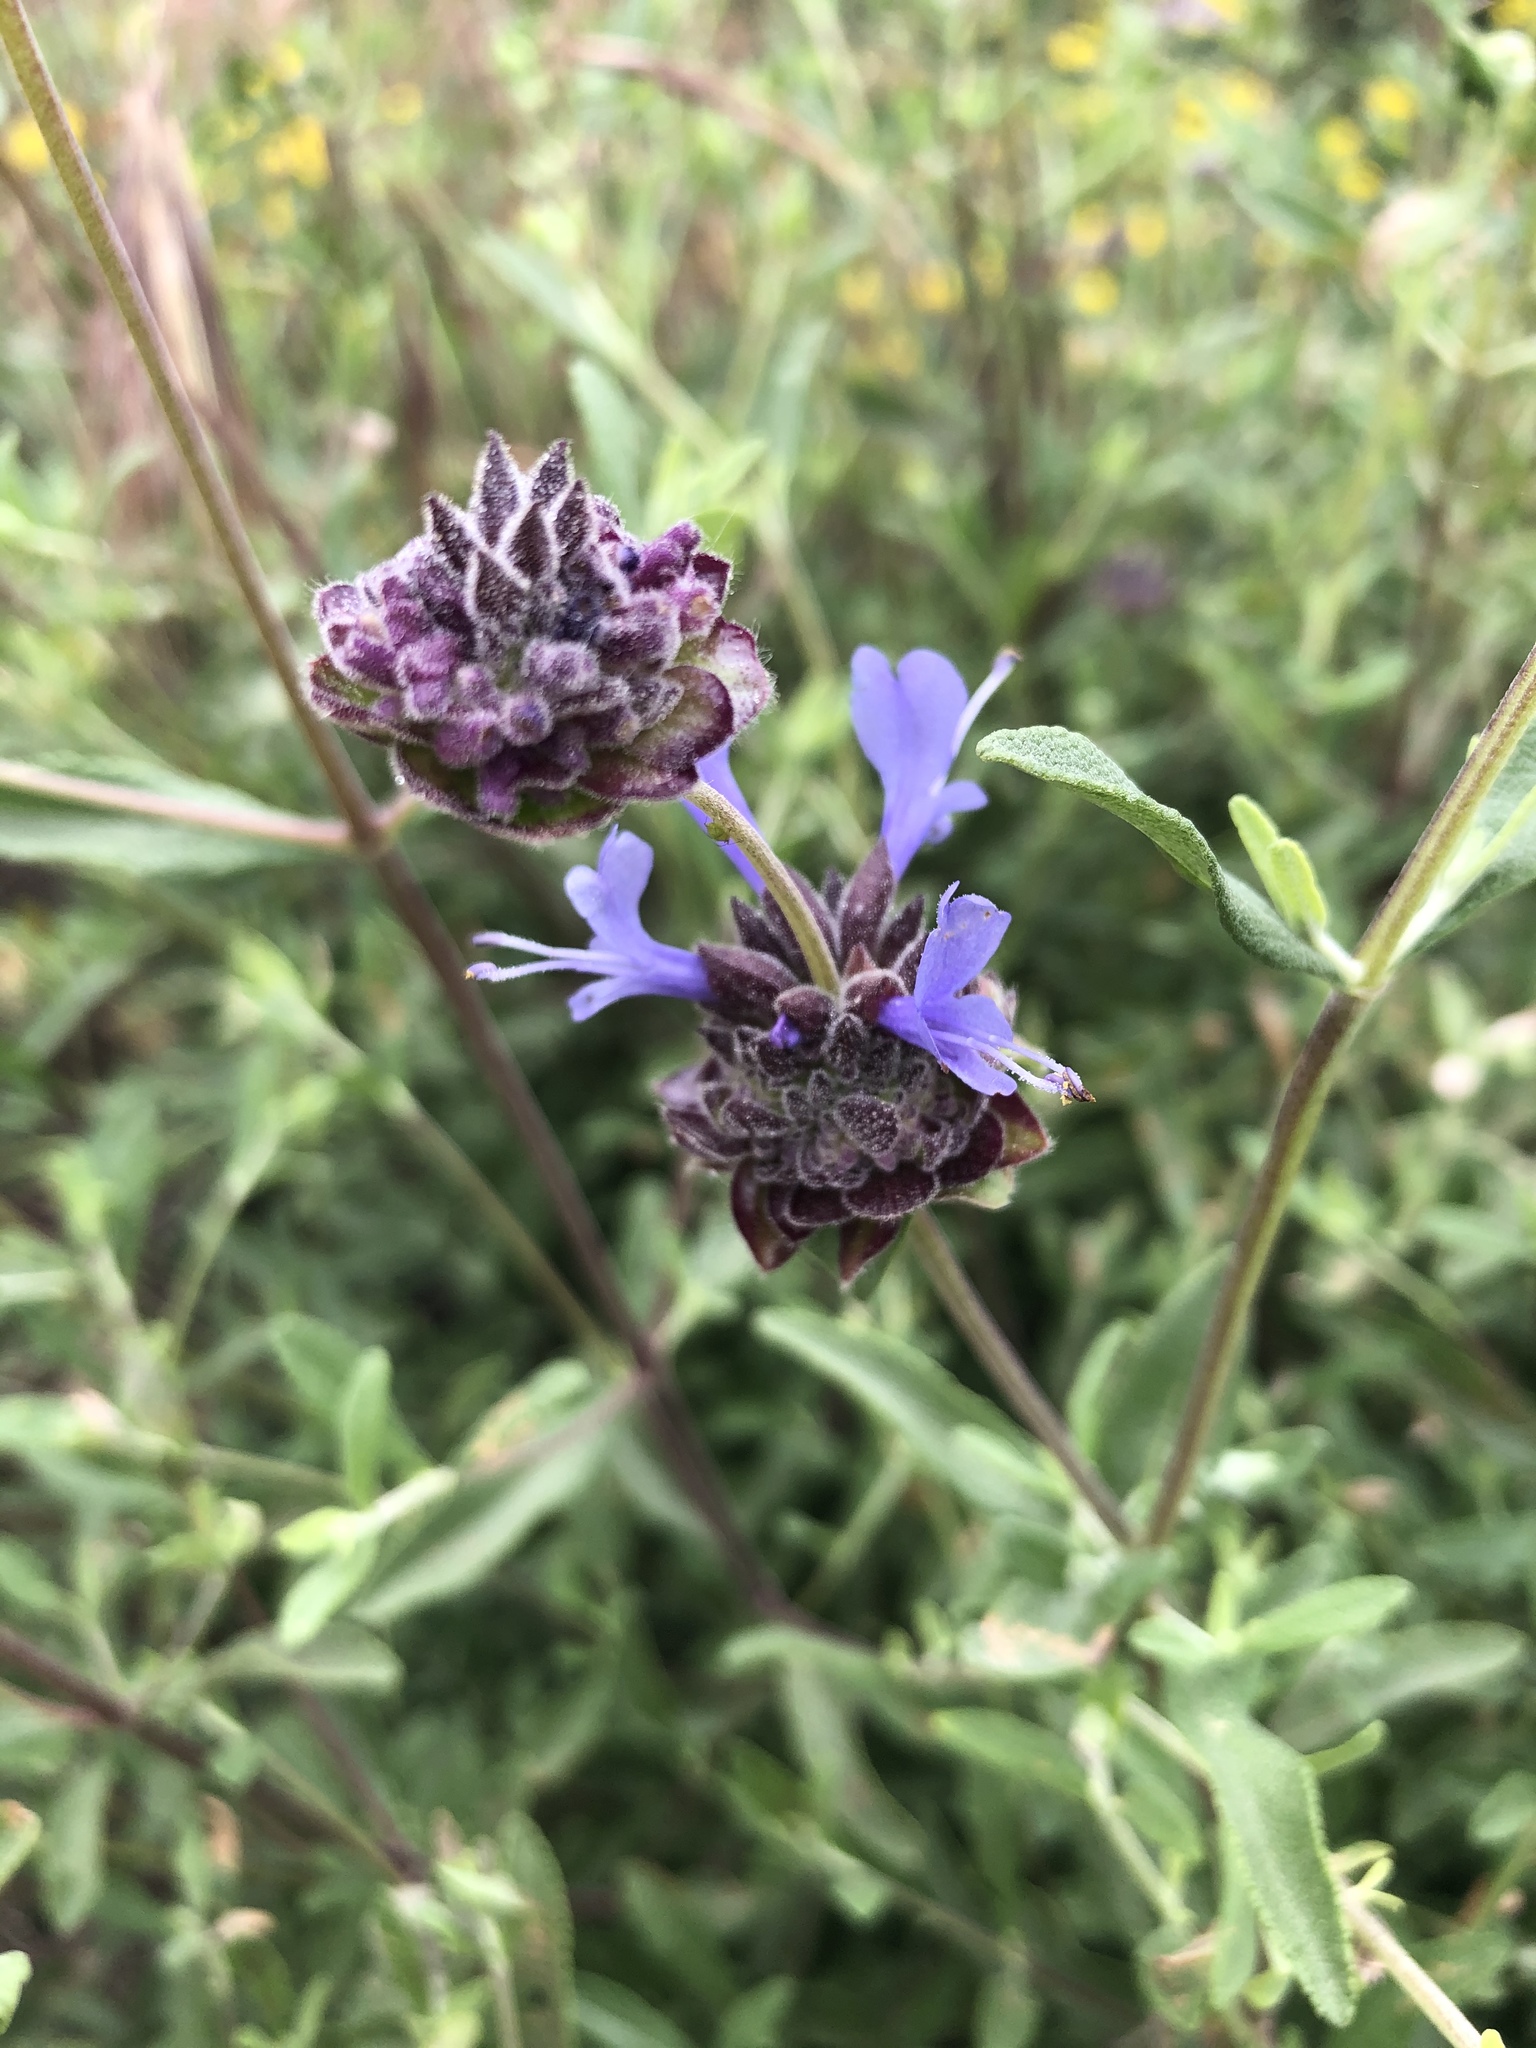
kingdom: Plantae
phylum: Tracheophyta
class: Magnoliopsida
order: Lamiales
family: Lamiaceae
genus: Salvia
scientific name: Salvia clevelandii
